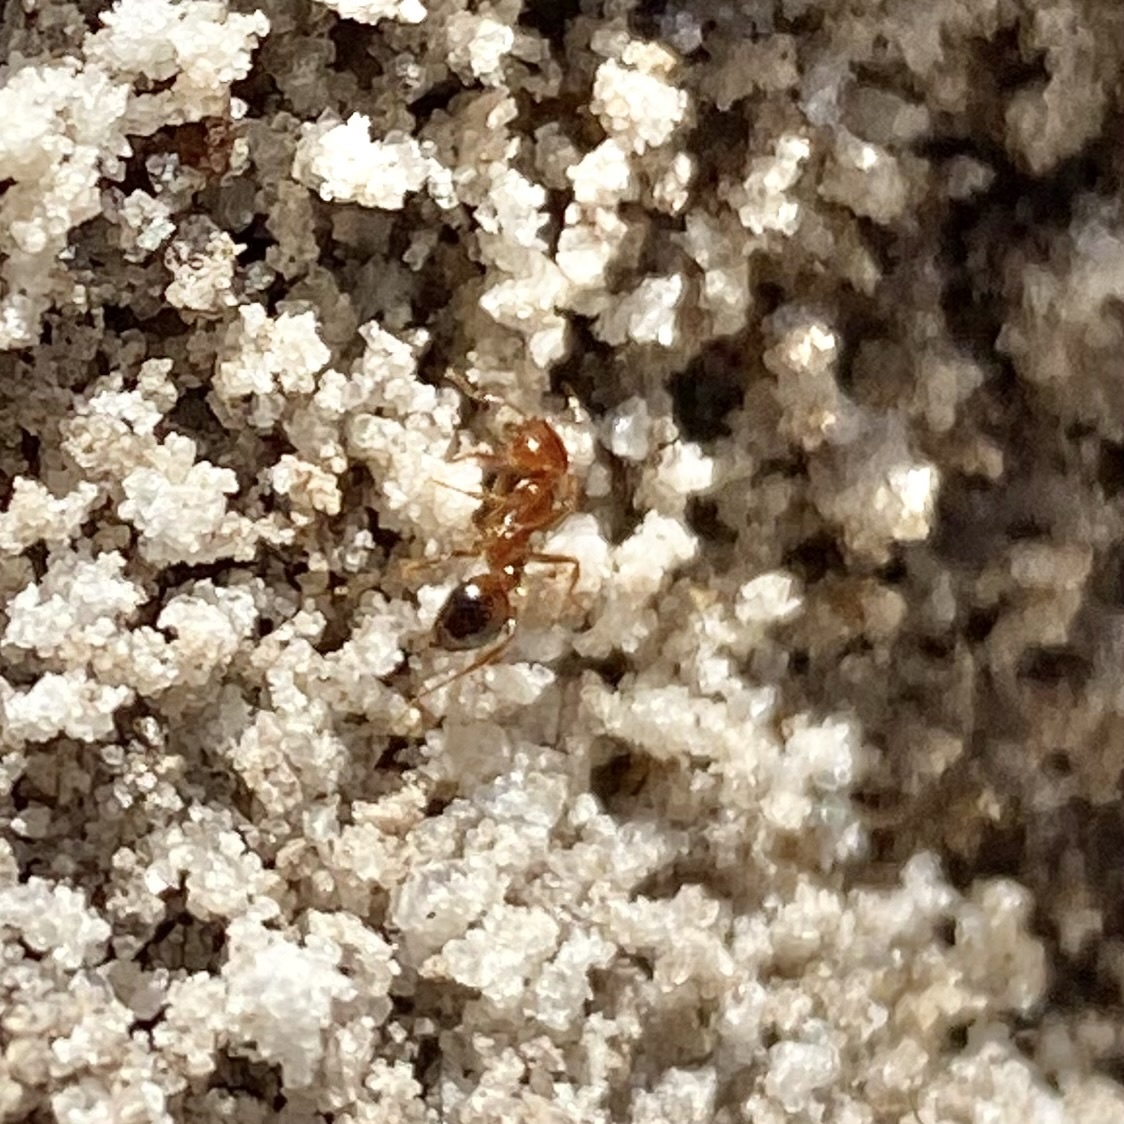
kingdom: Animalia
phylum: Arthropoda
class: Insecta
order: Hymenoptera
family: Formicidae
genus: Solenopsis
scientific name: Solenopsis invicta
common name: Red imported fire ant
